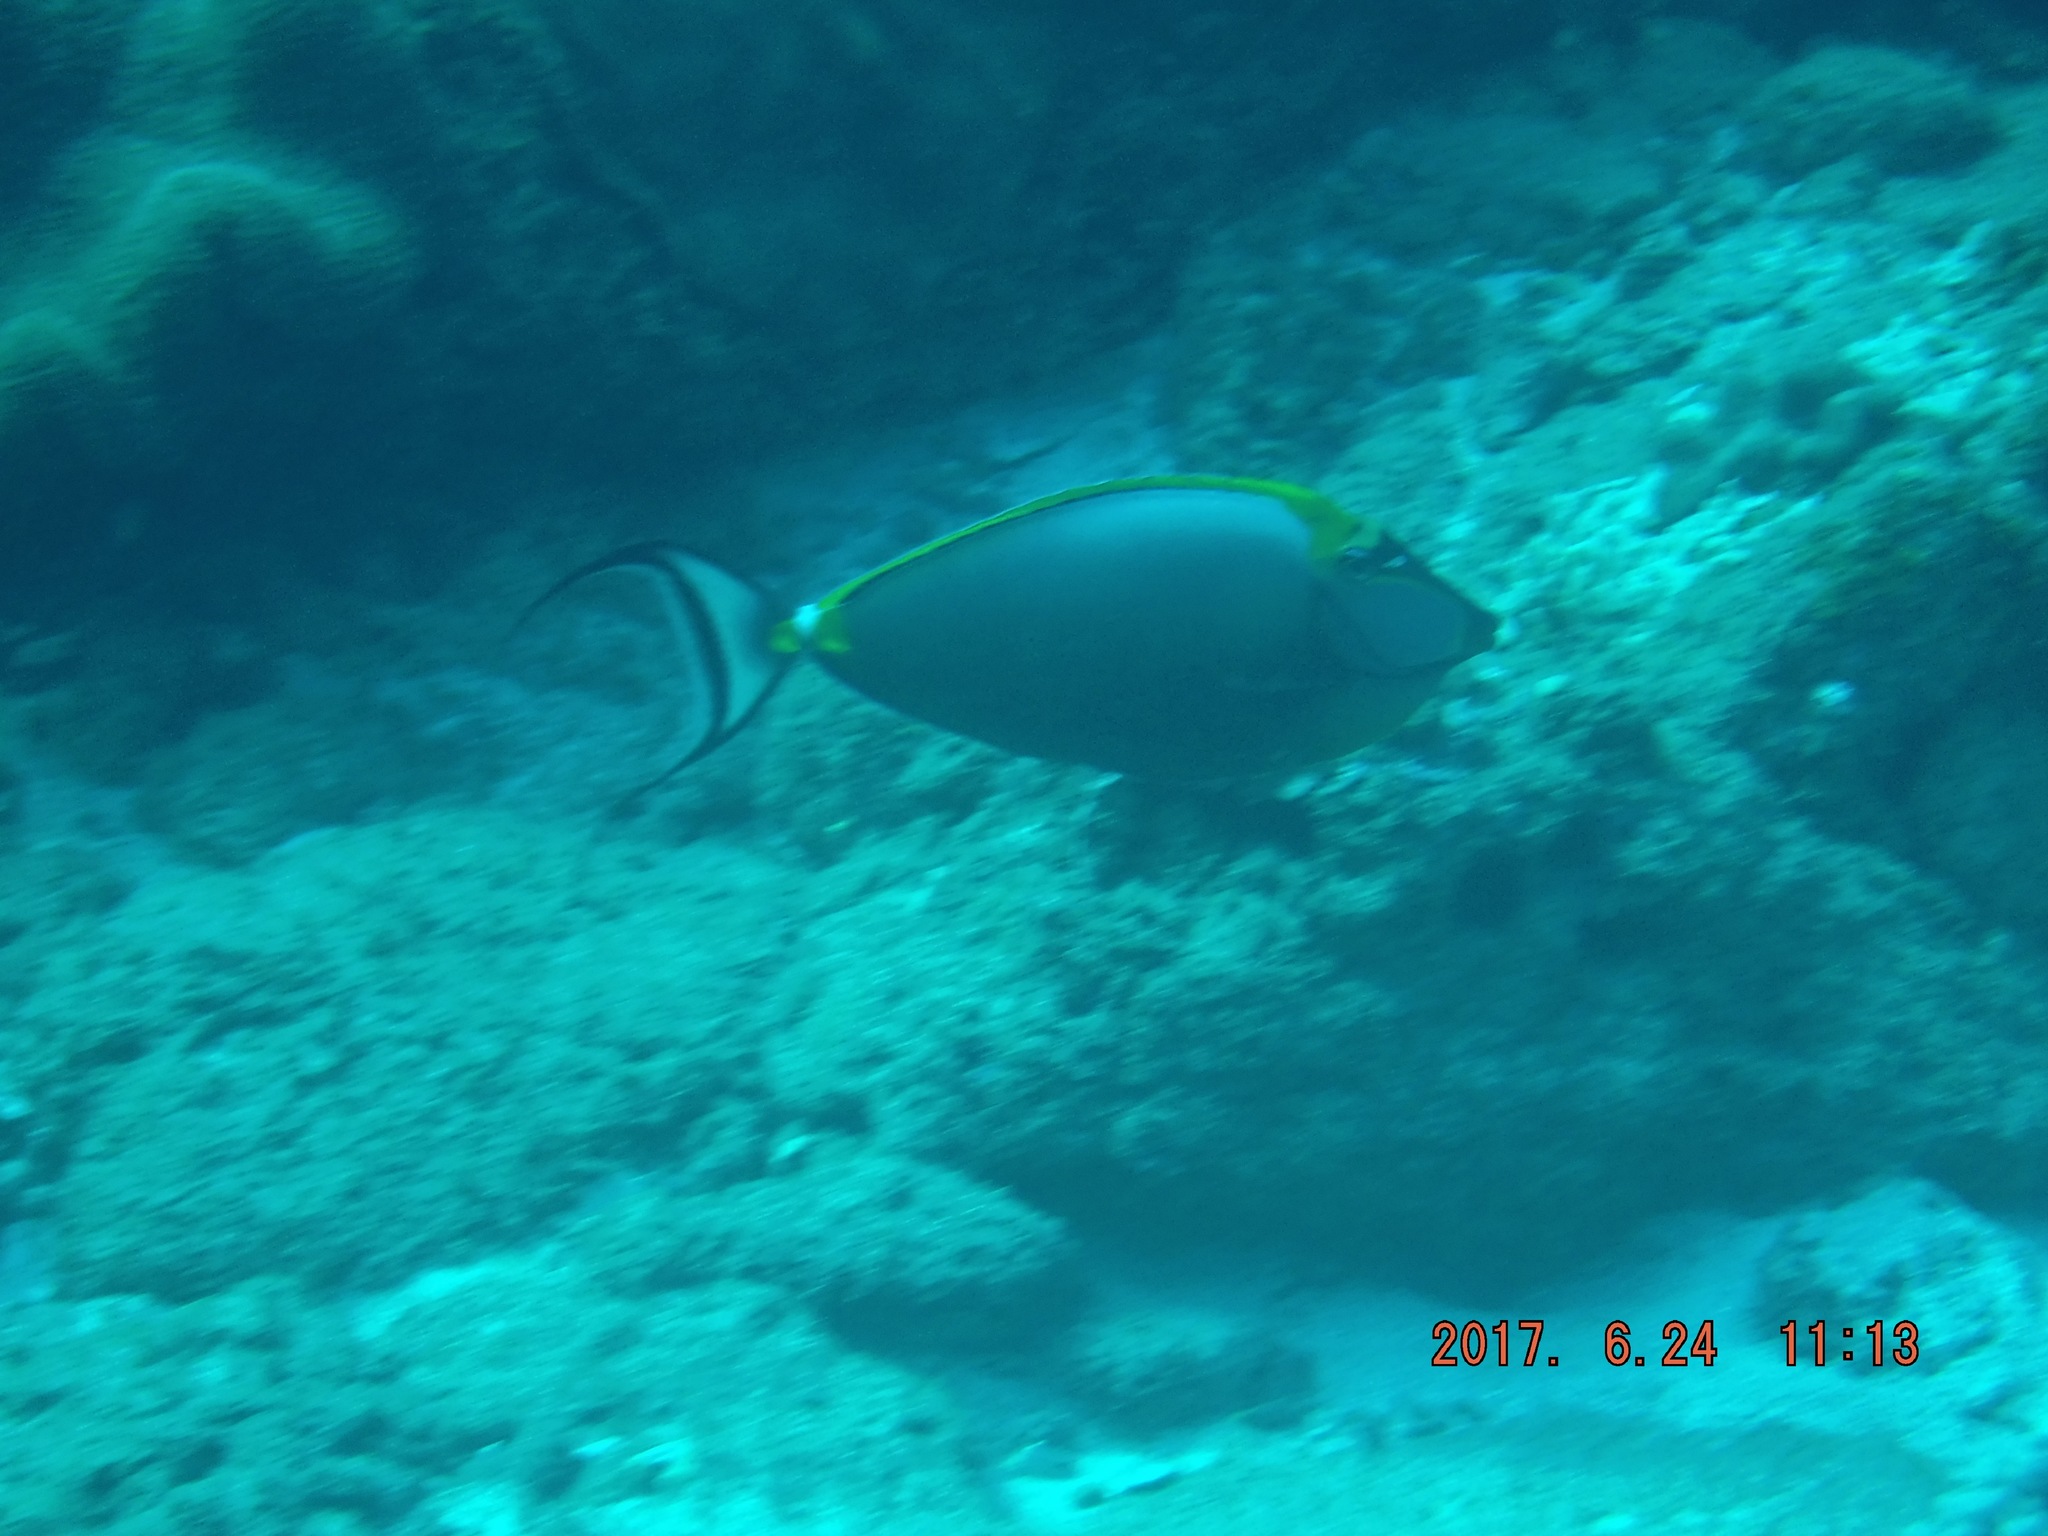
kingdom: Animalia
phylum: Chordata
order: Perciformes
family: Acanthuridae
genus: Naso
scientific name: Naso elegans
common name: Orangespine unicornfish
